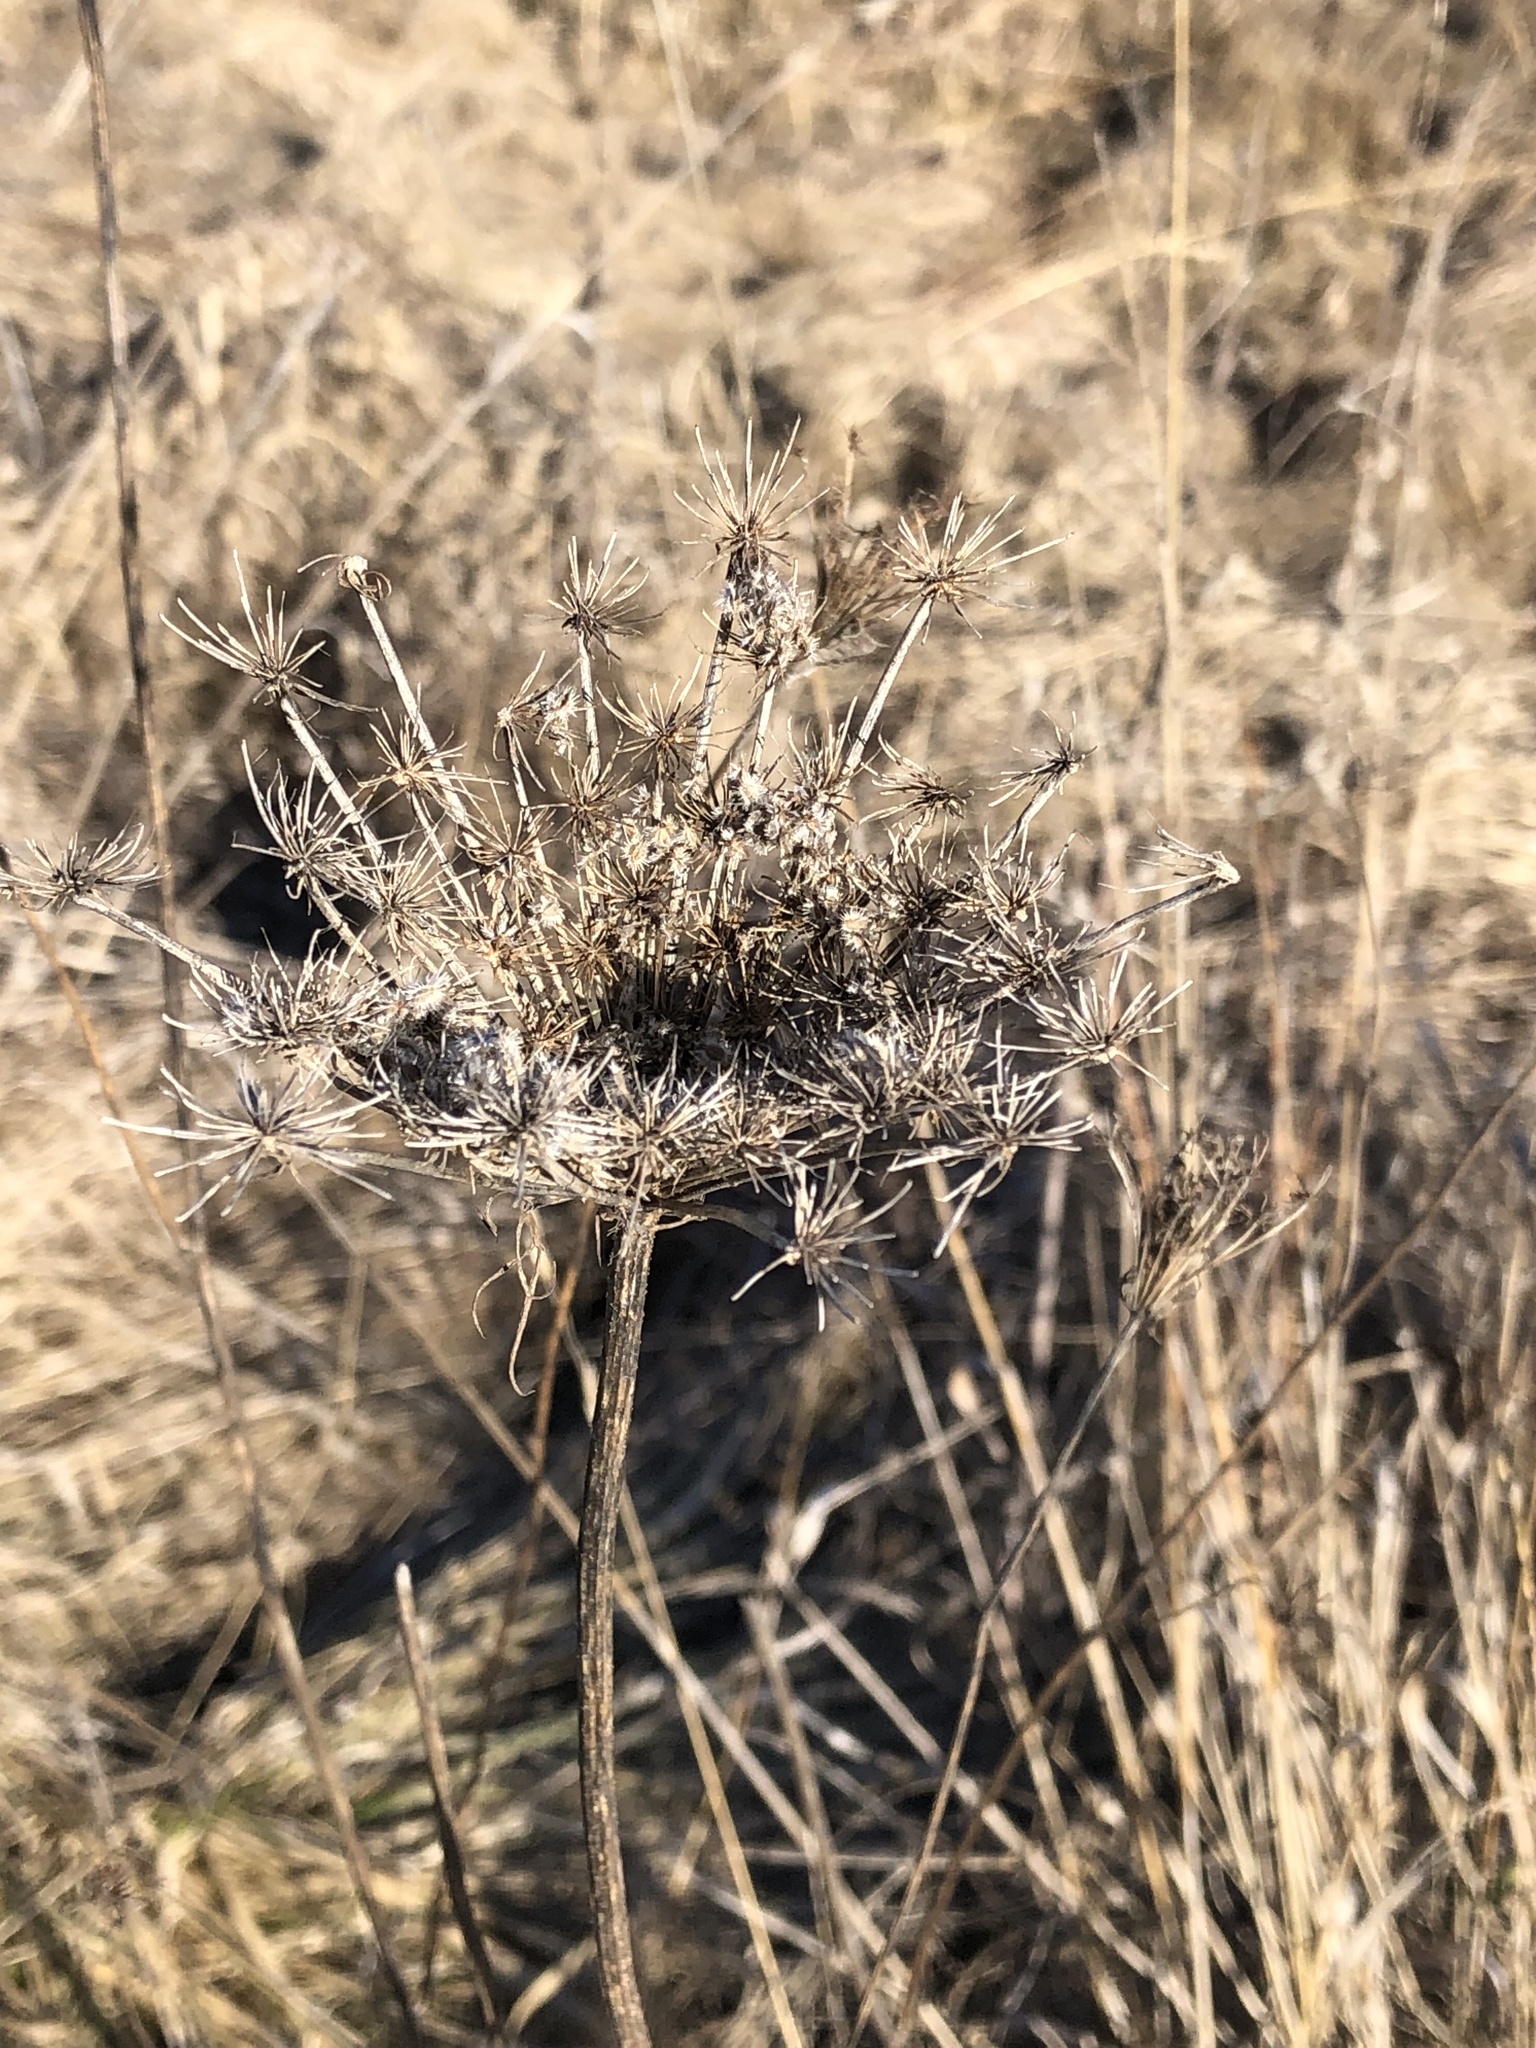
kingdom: Plantae
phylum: Tracheophyta
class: Magnoliopsida
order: Apiales
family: Apiaceae
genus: Daucus
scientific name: Daucus carota
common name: Wild carrot
